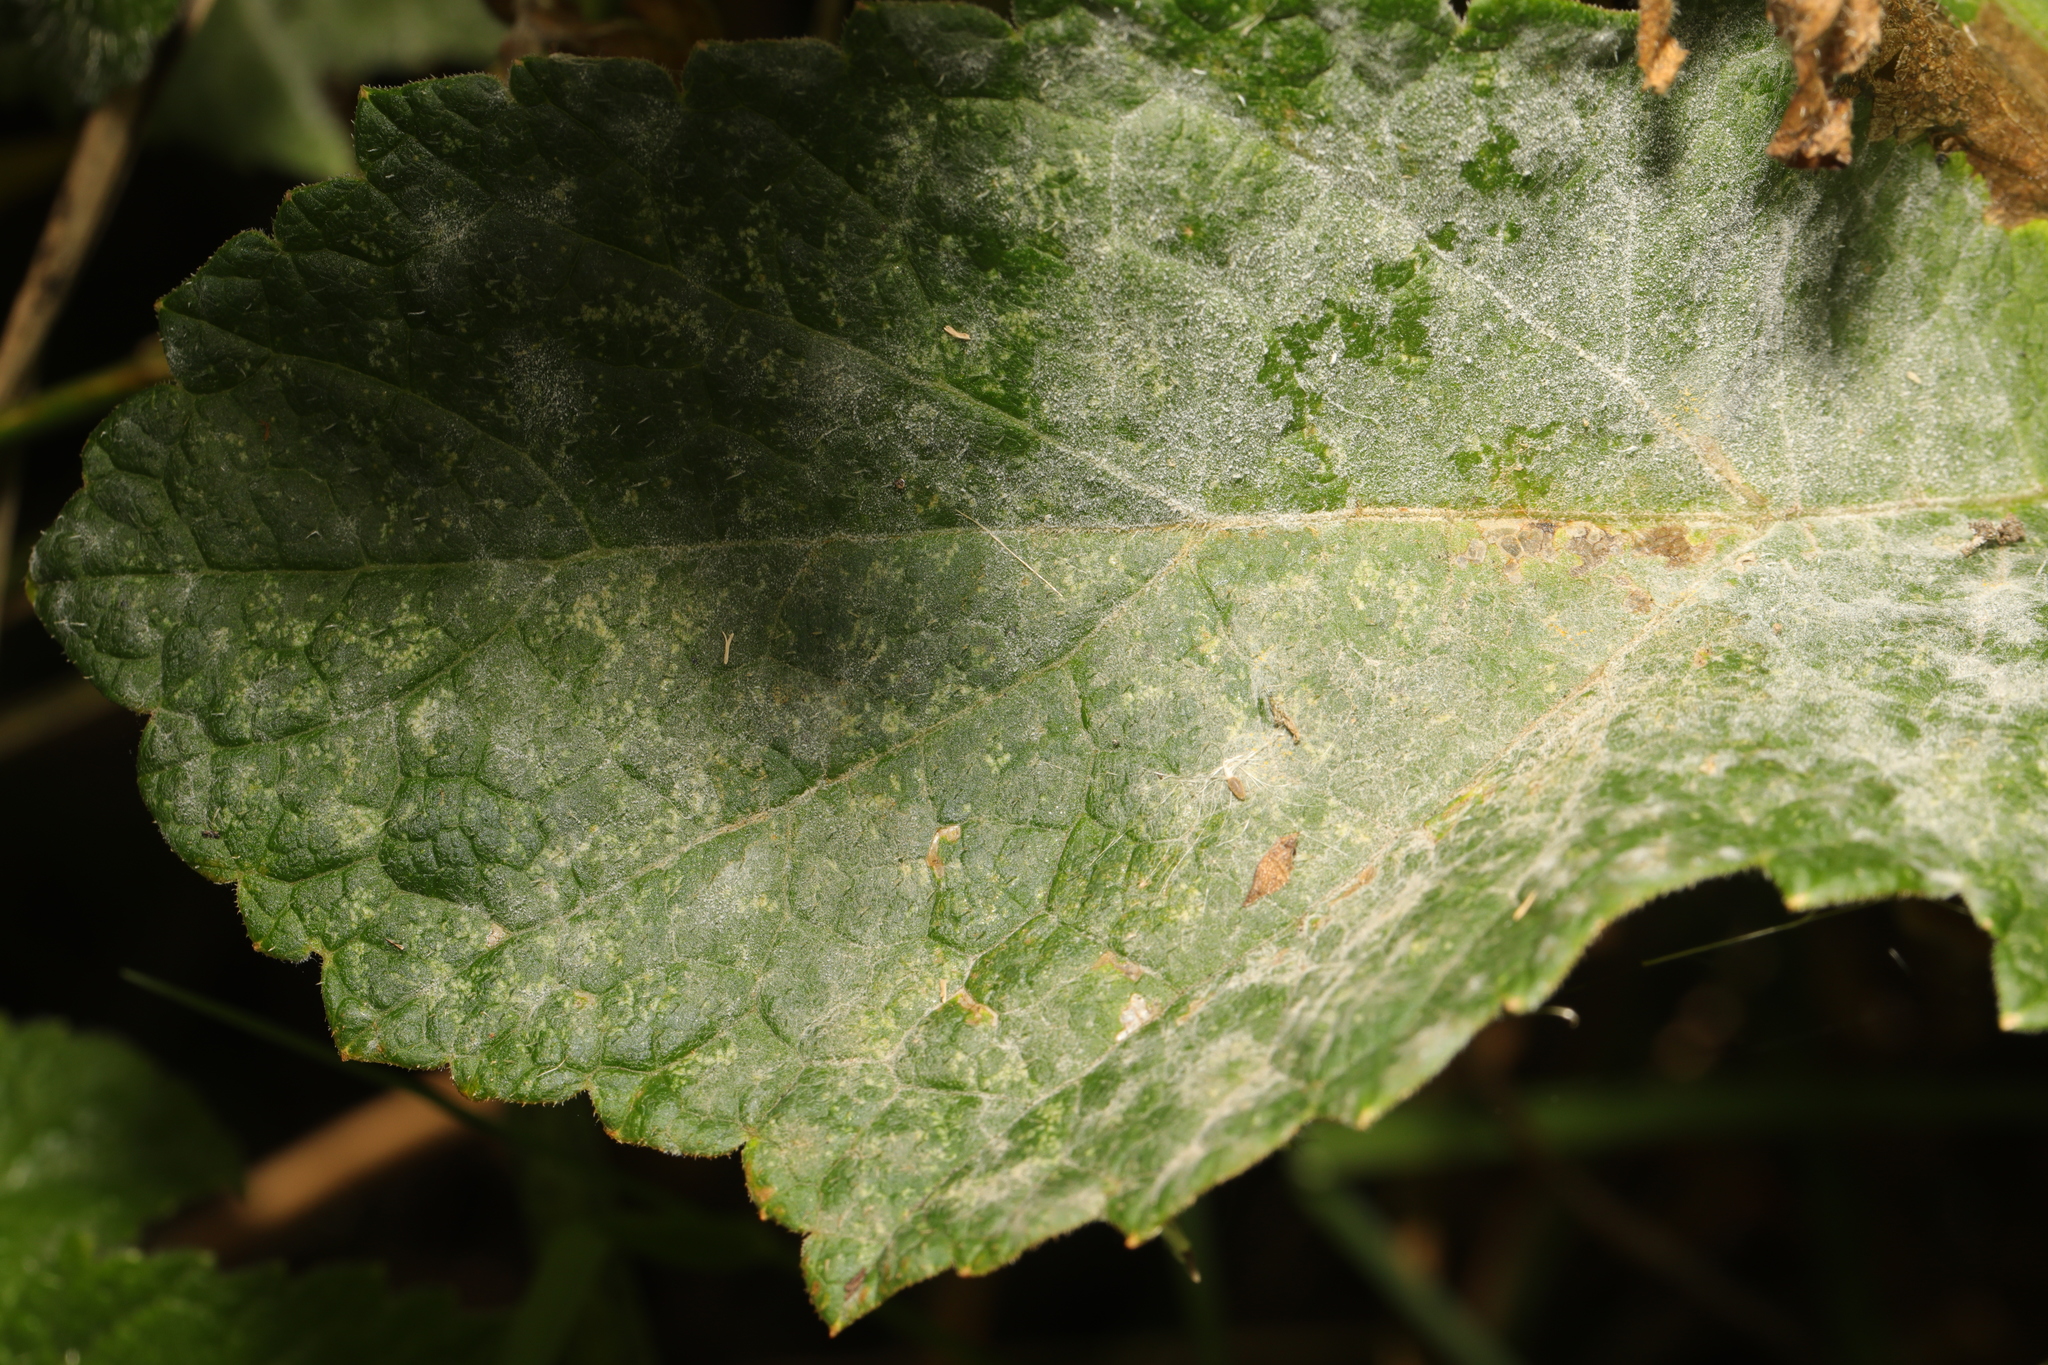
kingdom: Fungi
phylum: Ascomycota
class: Leotiomycetes
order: Helotiales
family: Erysiphaceae
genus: Erysiphe
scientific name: Erysiphe heraclei
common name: Umbellifer mildew
